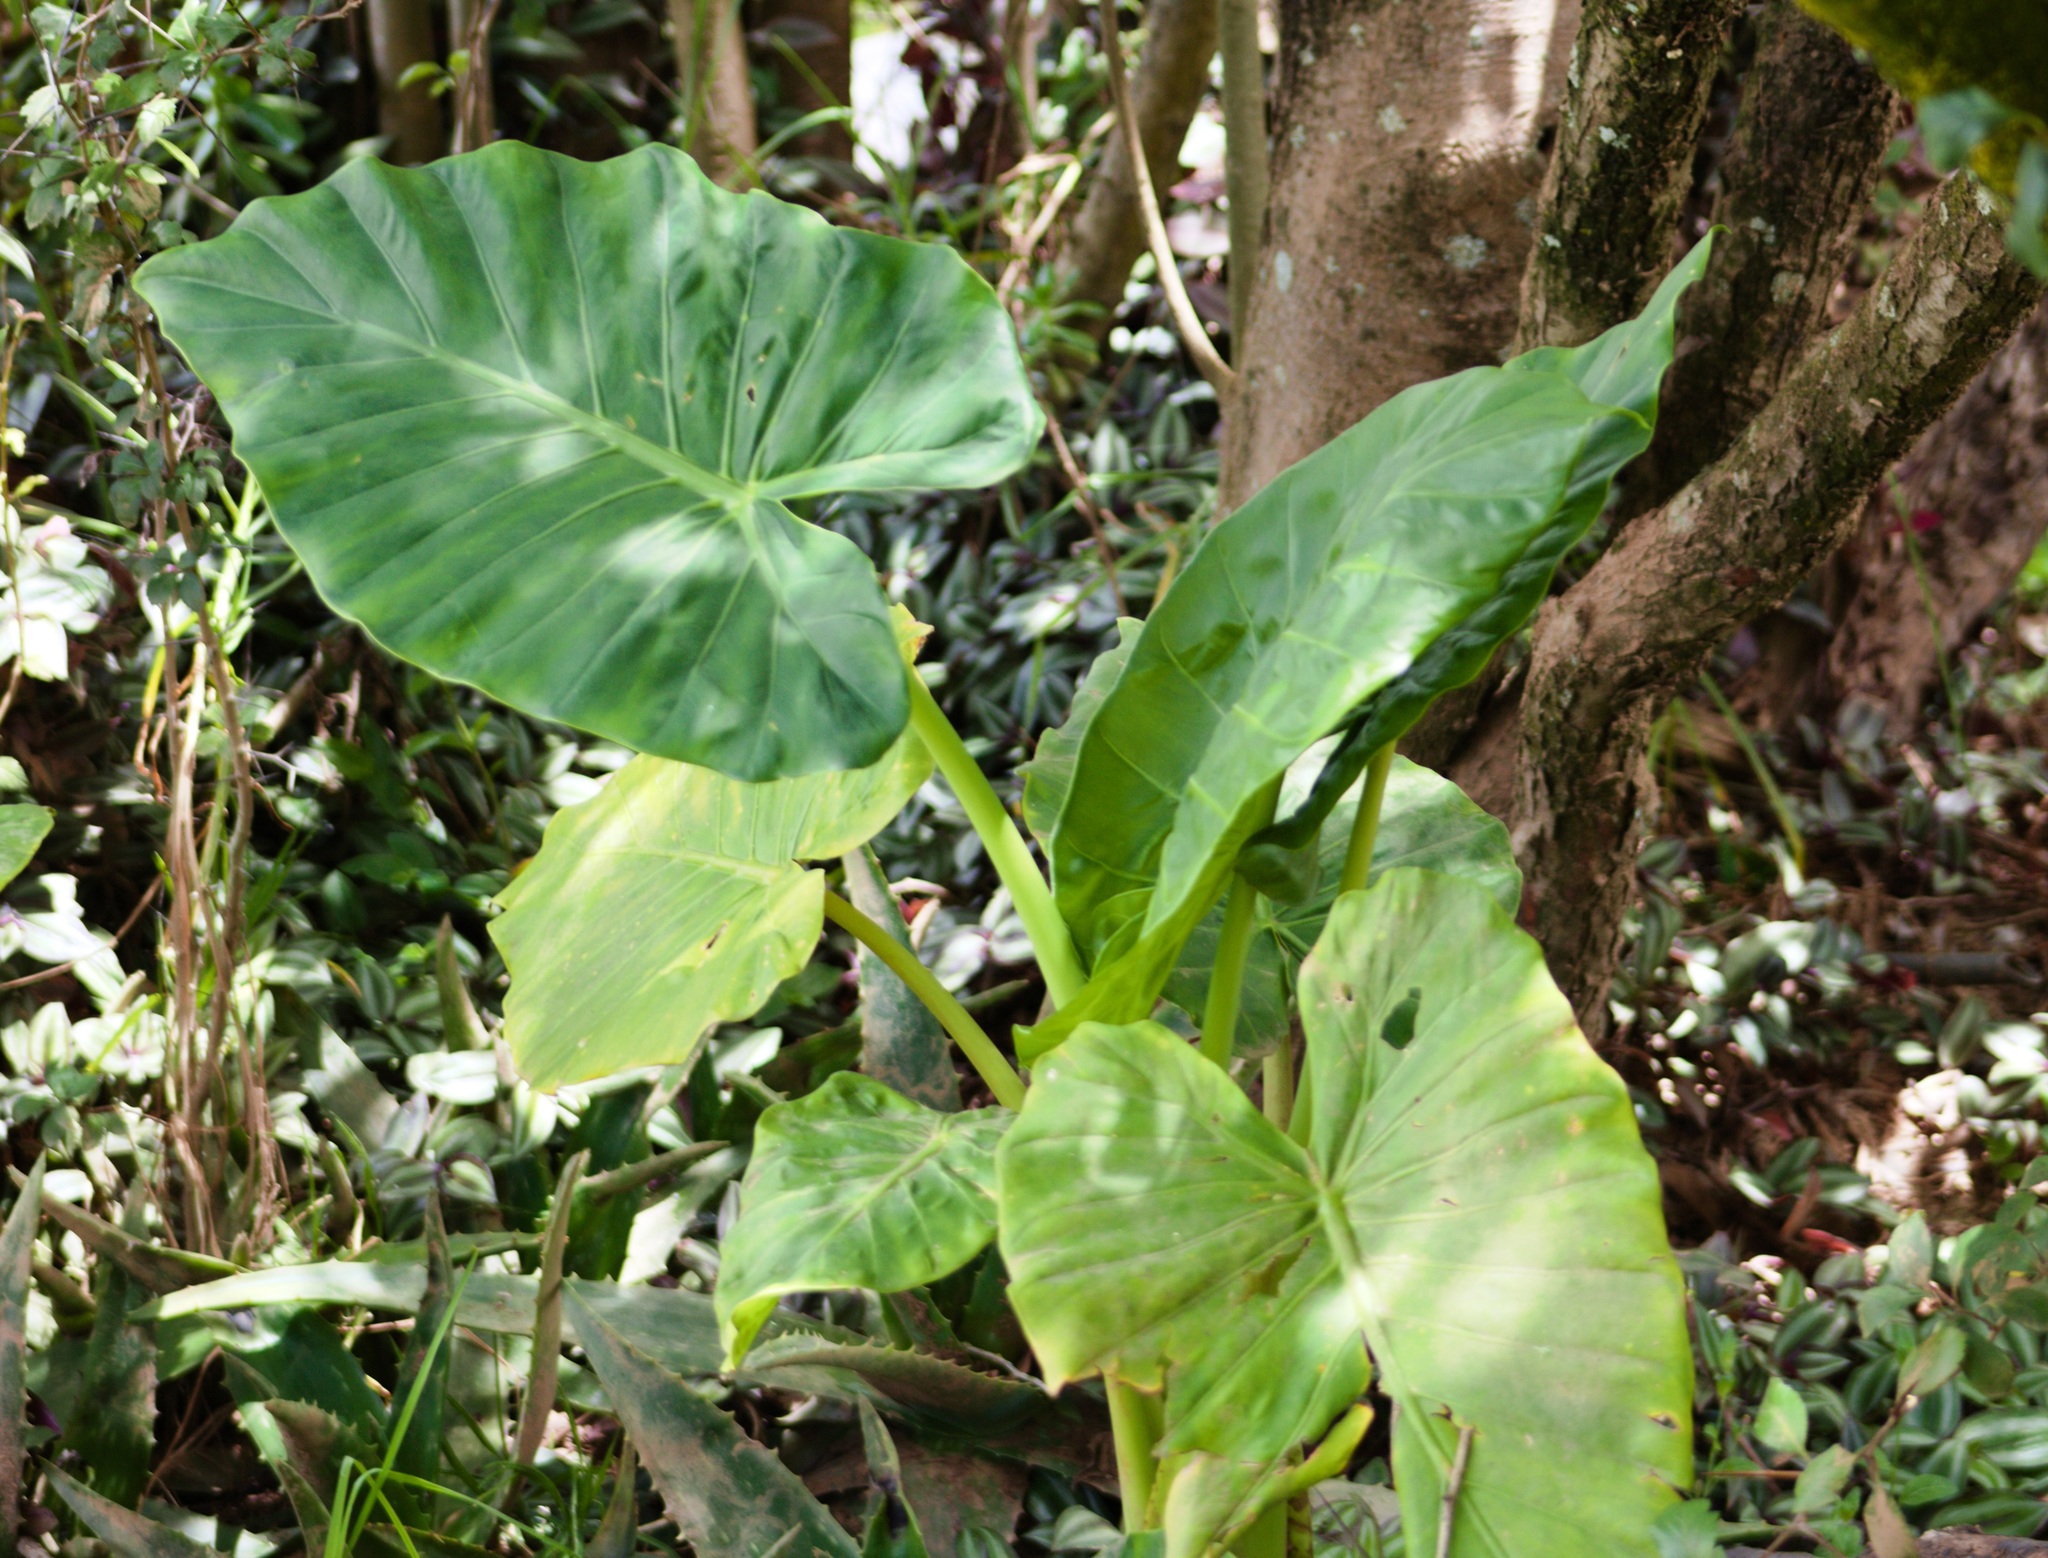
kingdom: Plantae
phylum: Tracheophyta
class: Liliopsida
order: Alismatales
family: Araceae
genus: Alocasia
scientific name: Alocasia odora
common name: Asian taro
